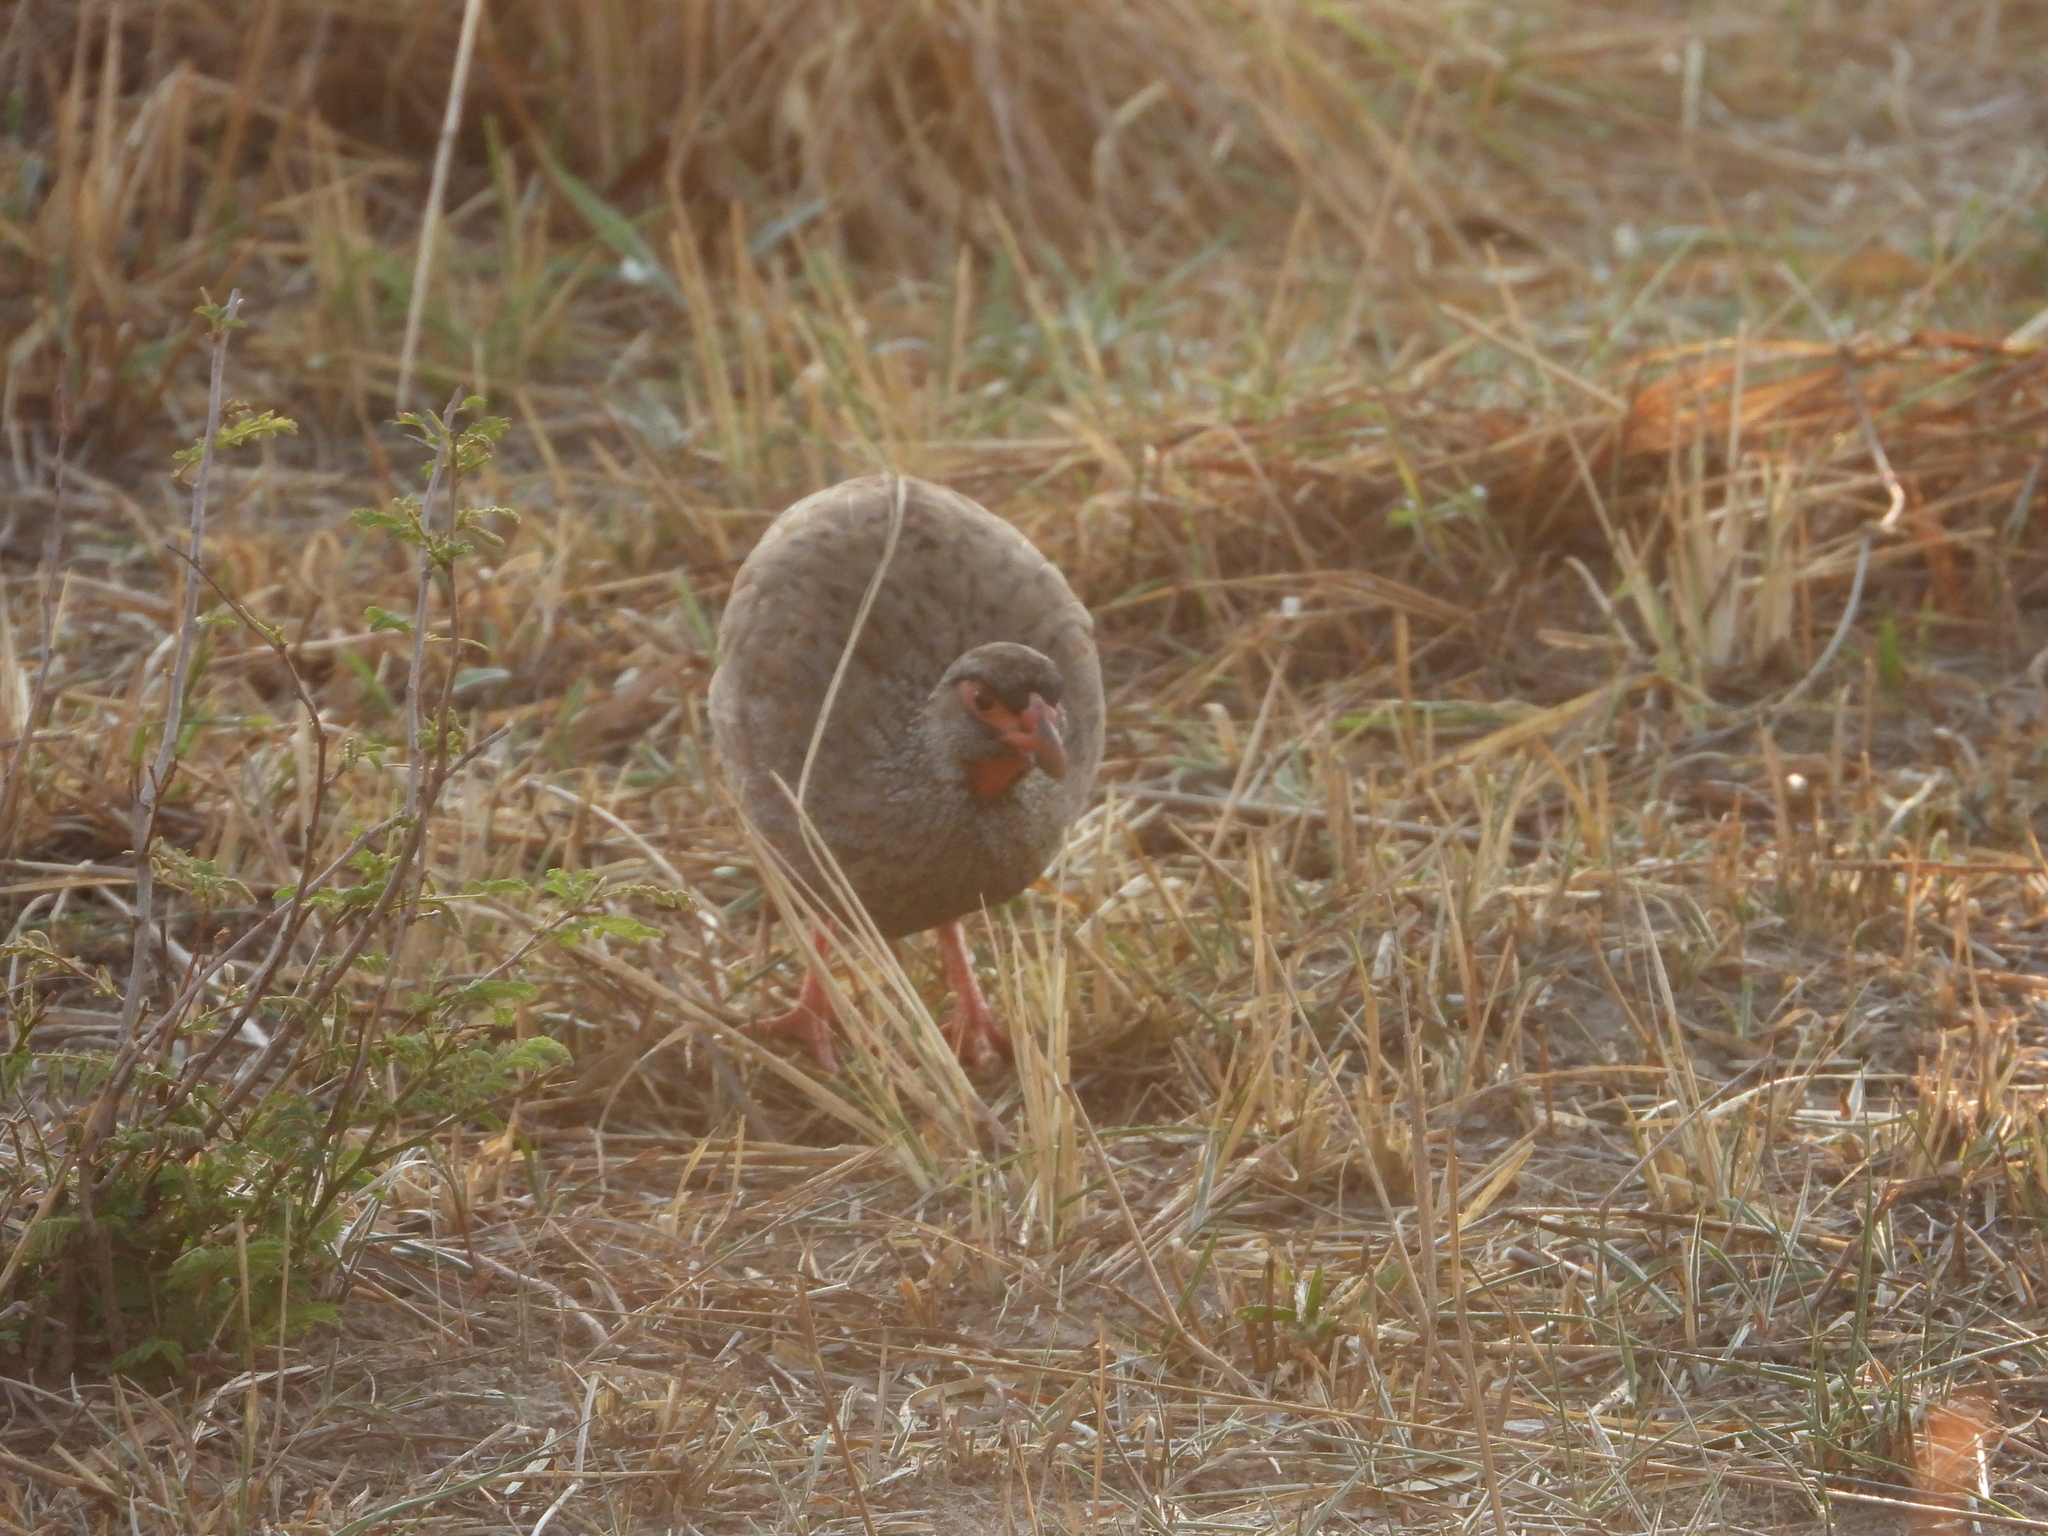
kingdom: Animalia
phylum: Chordata
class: Aves
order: Galliformes
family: Phasianidae
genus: Pternistis
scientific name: Pternistis afer
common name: Red-necked spurfowl
